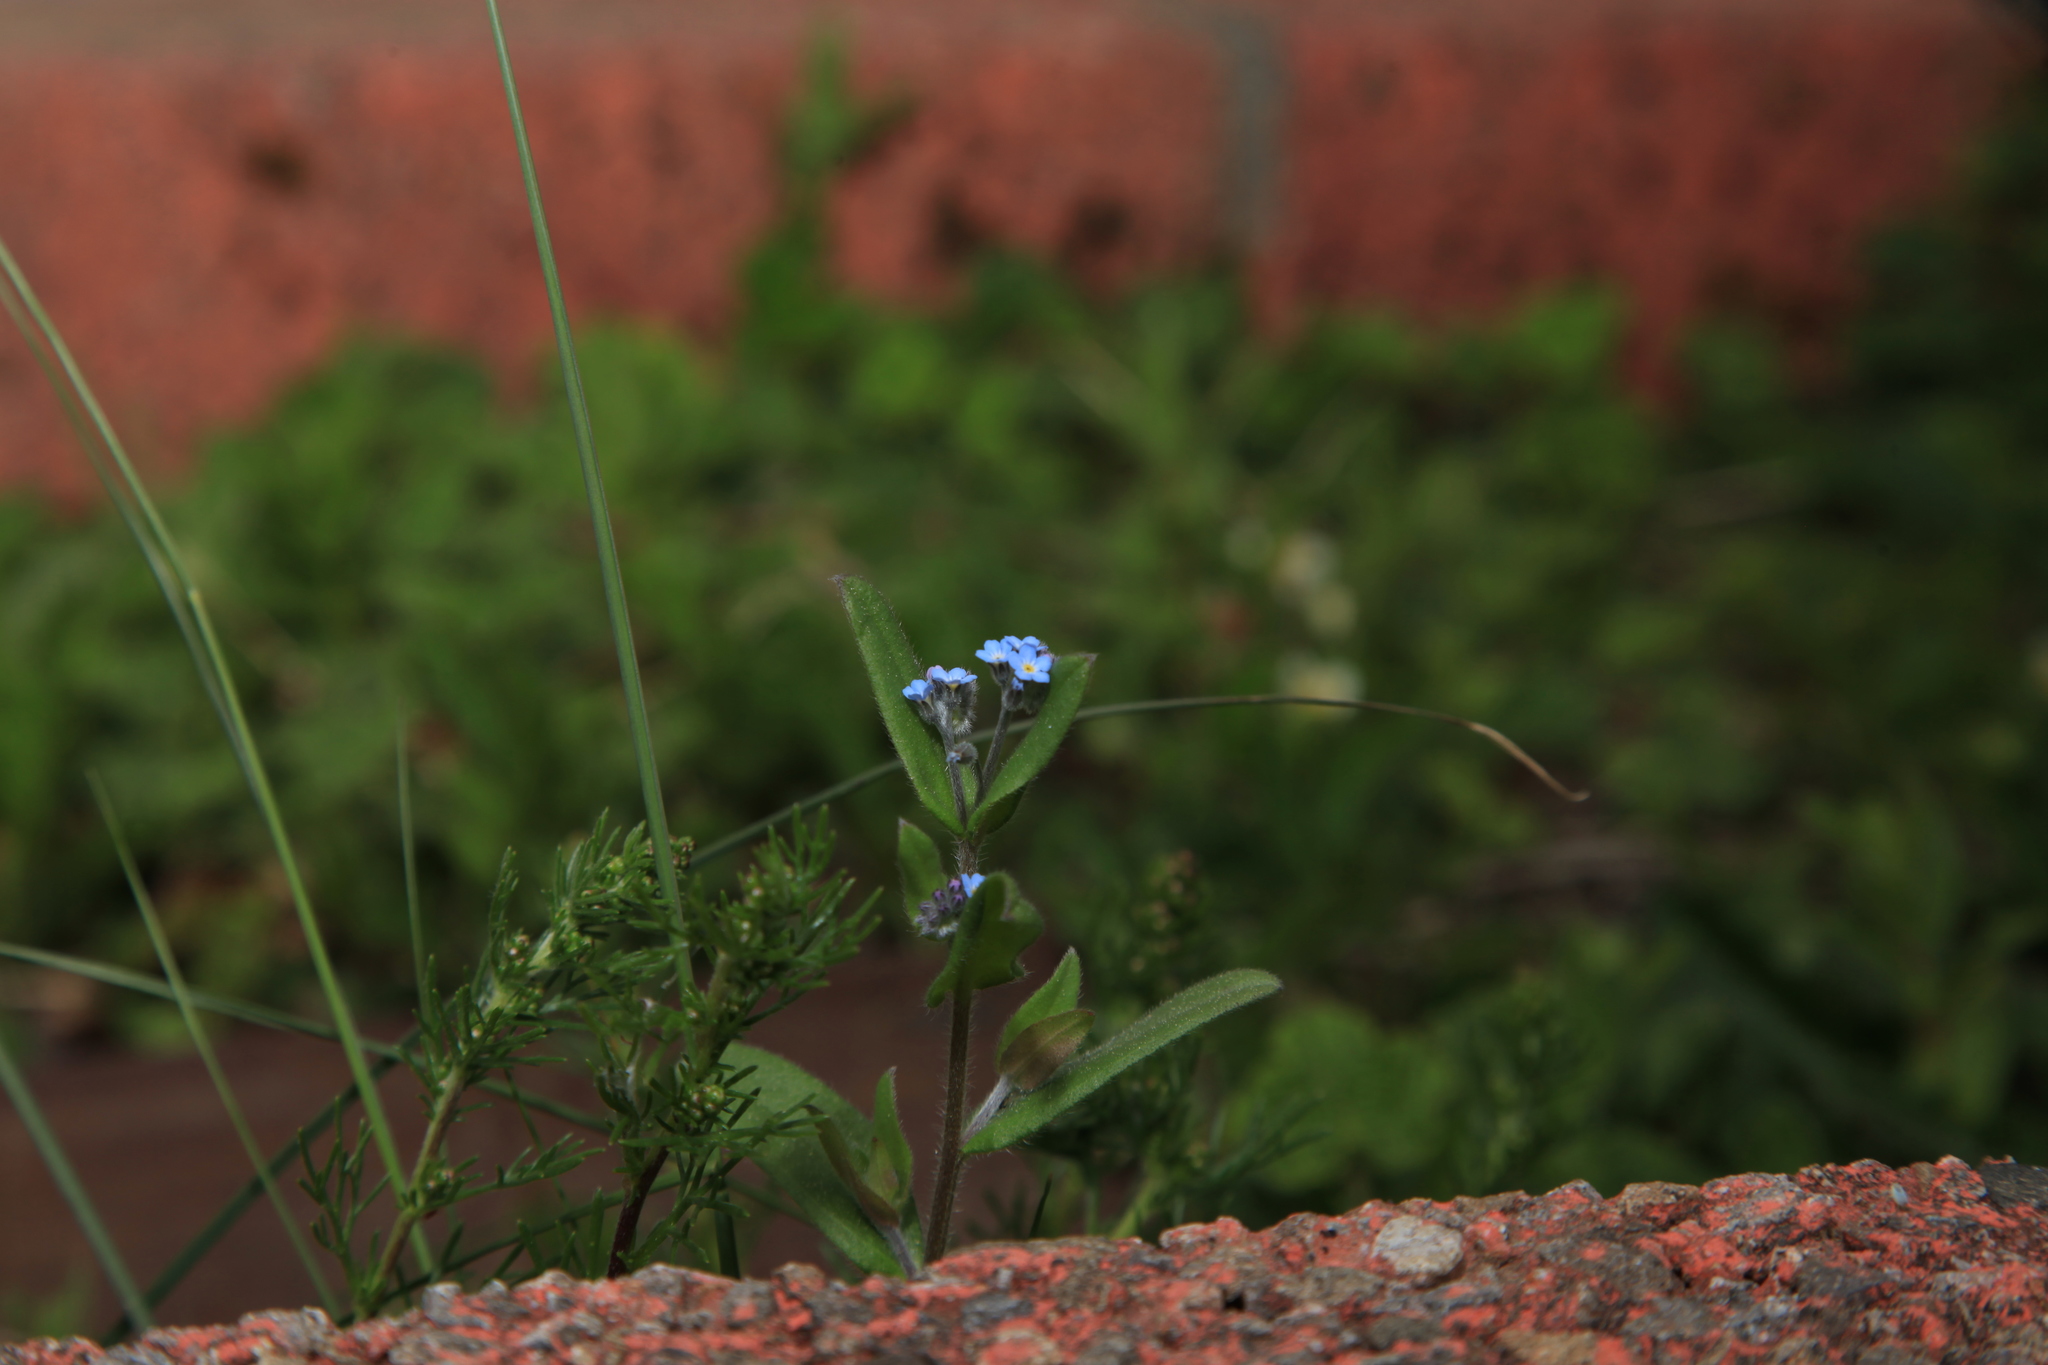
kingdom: Plantae
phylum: Tracheophyta
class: Magnoliopsida
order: Boraginales
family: Boraginaceae
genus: Myosotis
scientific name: Myosotis arvensis
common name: Field forget-me-not
